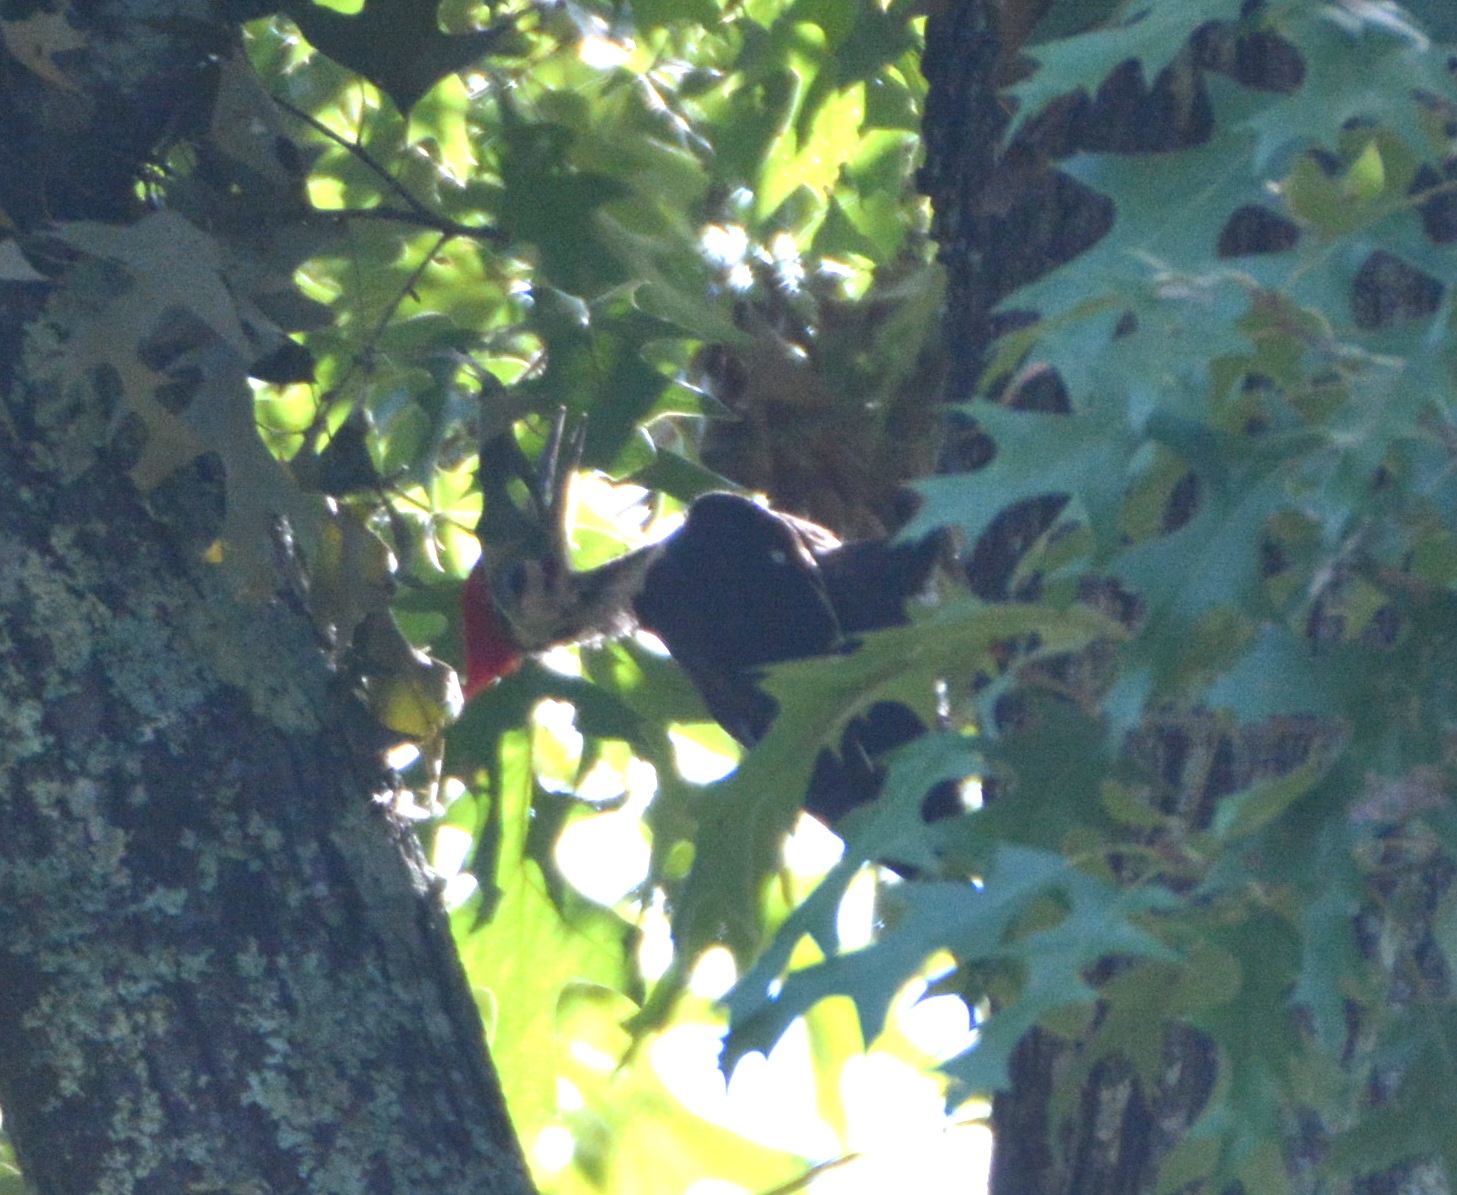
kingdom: Animalia
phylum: Chordata
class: Aves
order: Piciformes
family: Picidae
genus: Dryocopus
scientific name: Dryocopus pileatus
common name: Pileated woodpecker
